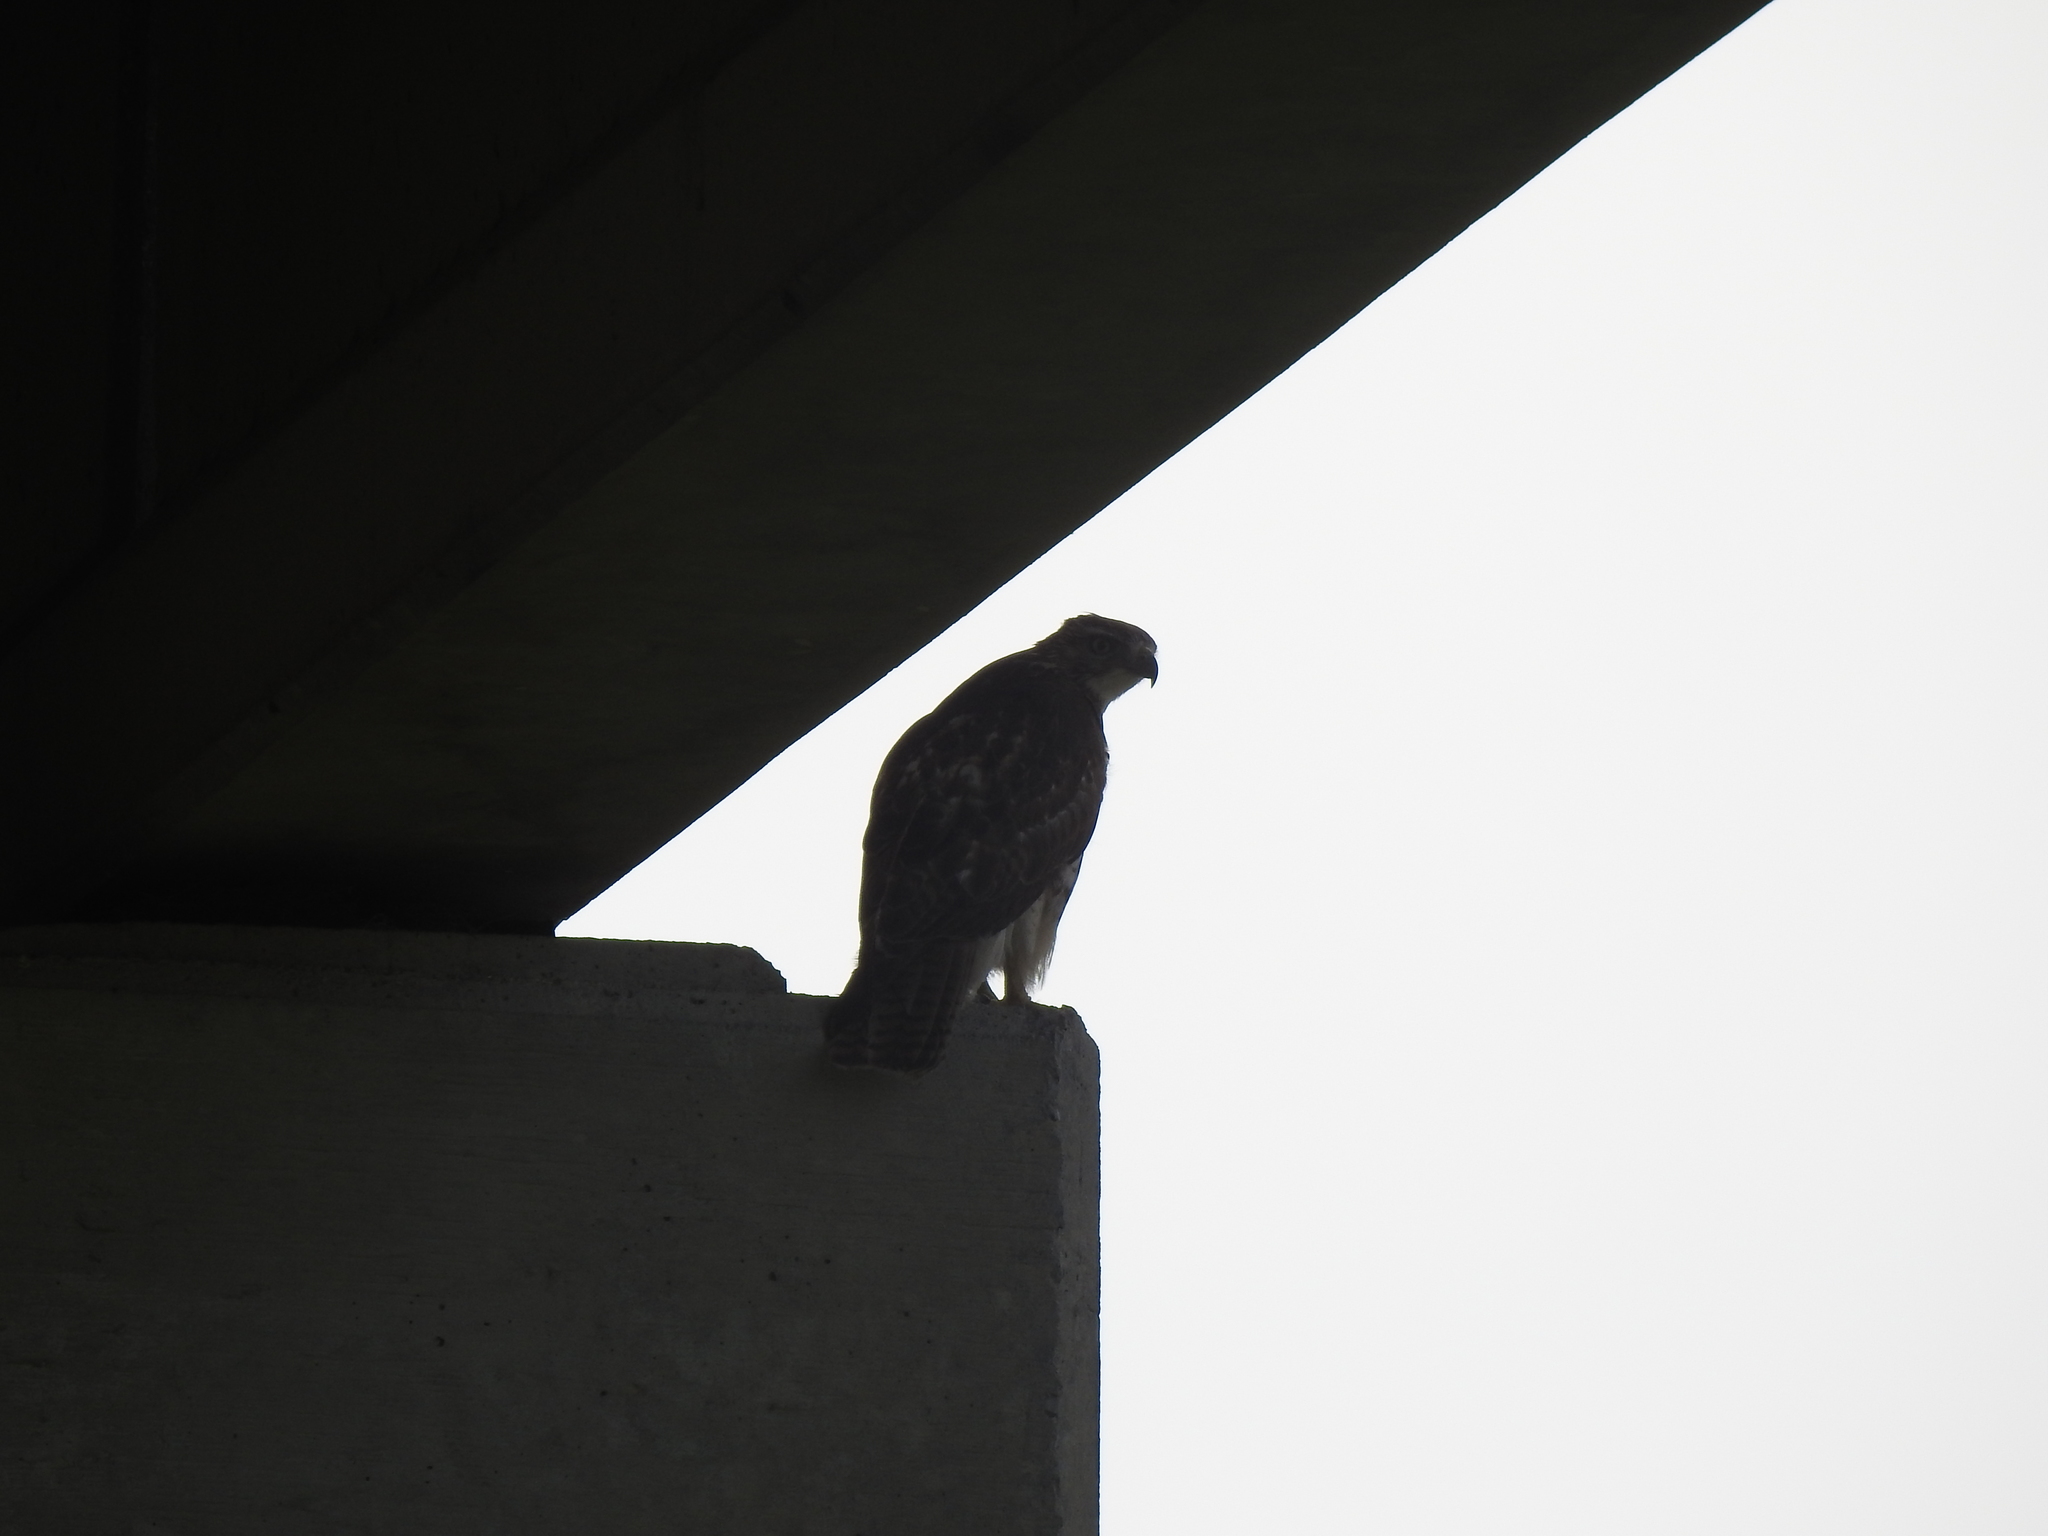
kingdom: Animalia
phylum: Chordata
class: Aves
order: Accipitriformes
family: Accipitridae
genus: Buteo
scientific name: Buteo jamaicensis
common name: Red-tailed hawk
